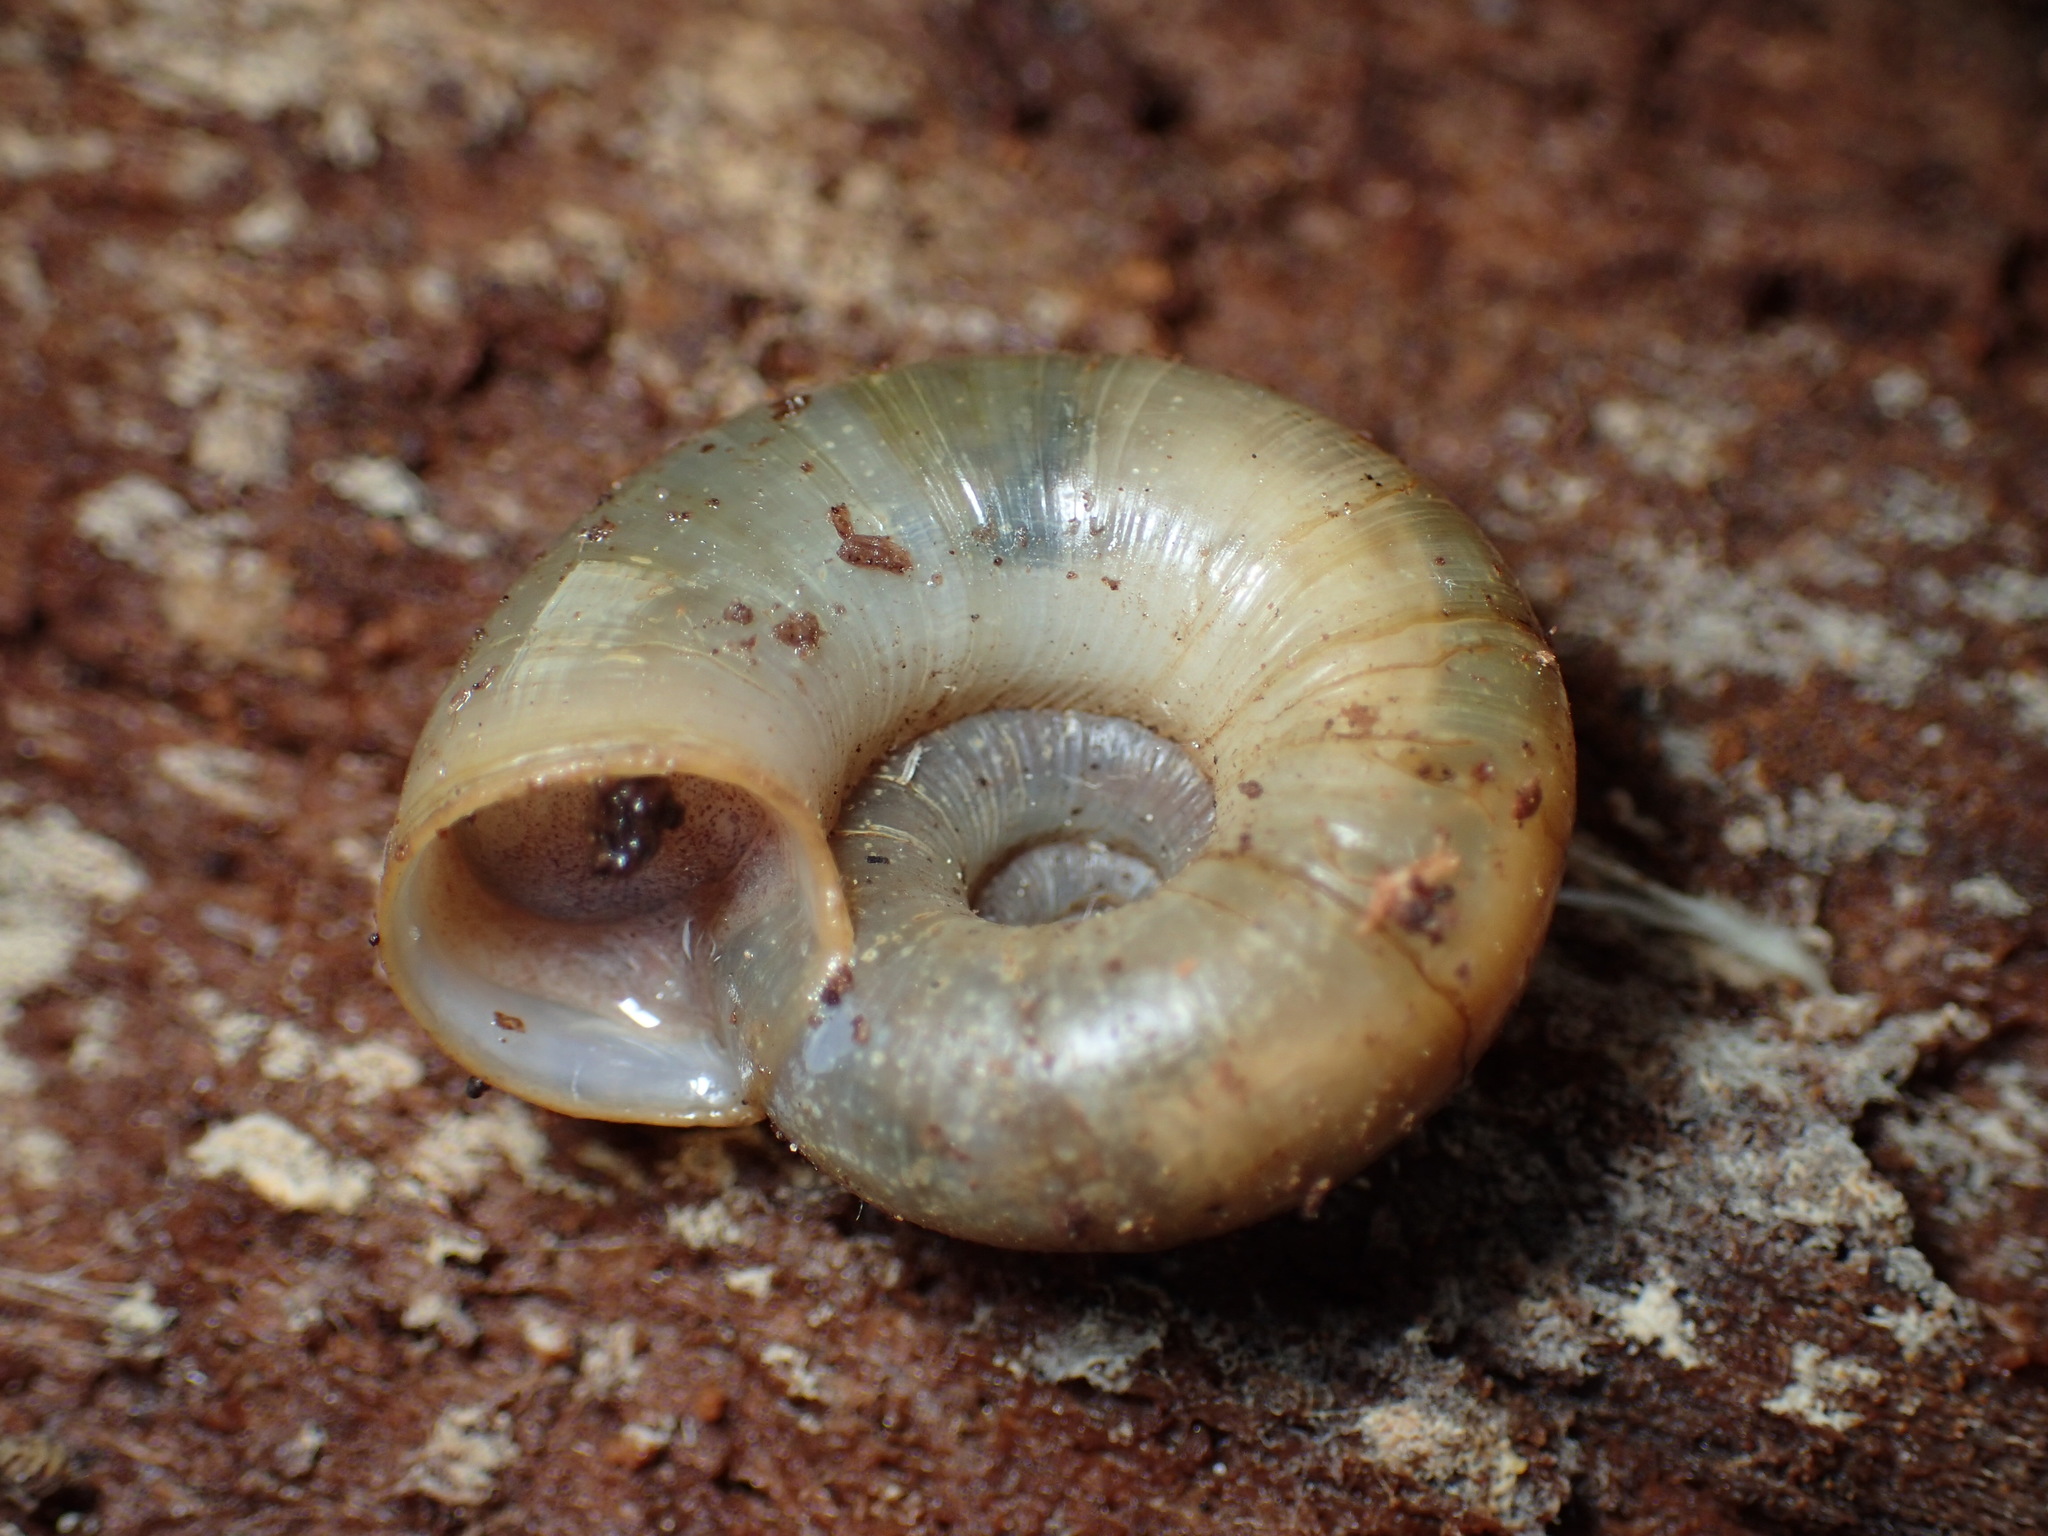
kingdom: Animalia
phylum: Mollusca
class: Gastropoda
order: Stylommatophora
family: Haplotrematidae
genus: Haplotrema
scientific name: Haplotrema concavum
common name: Gray-foot lancetooth
